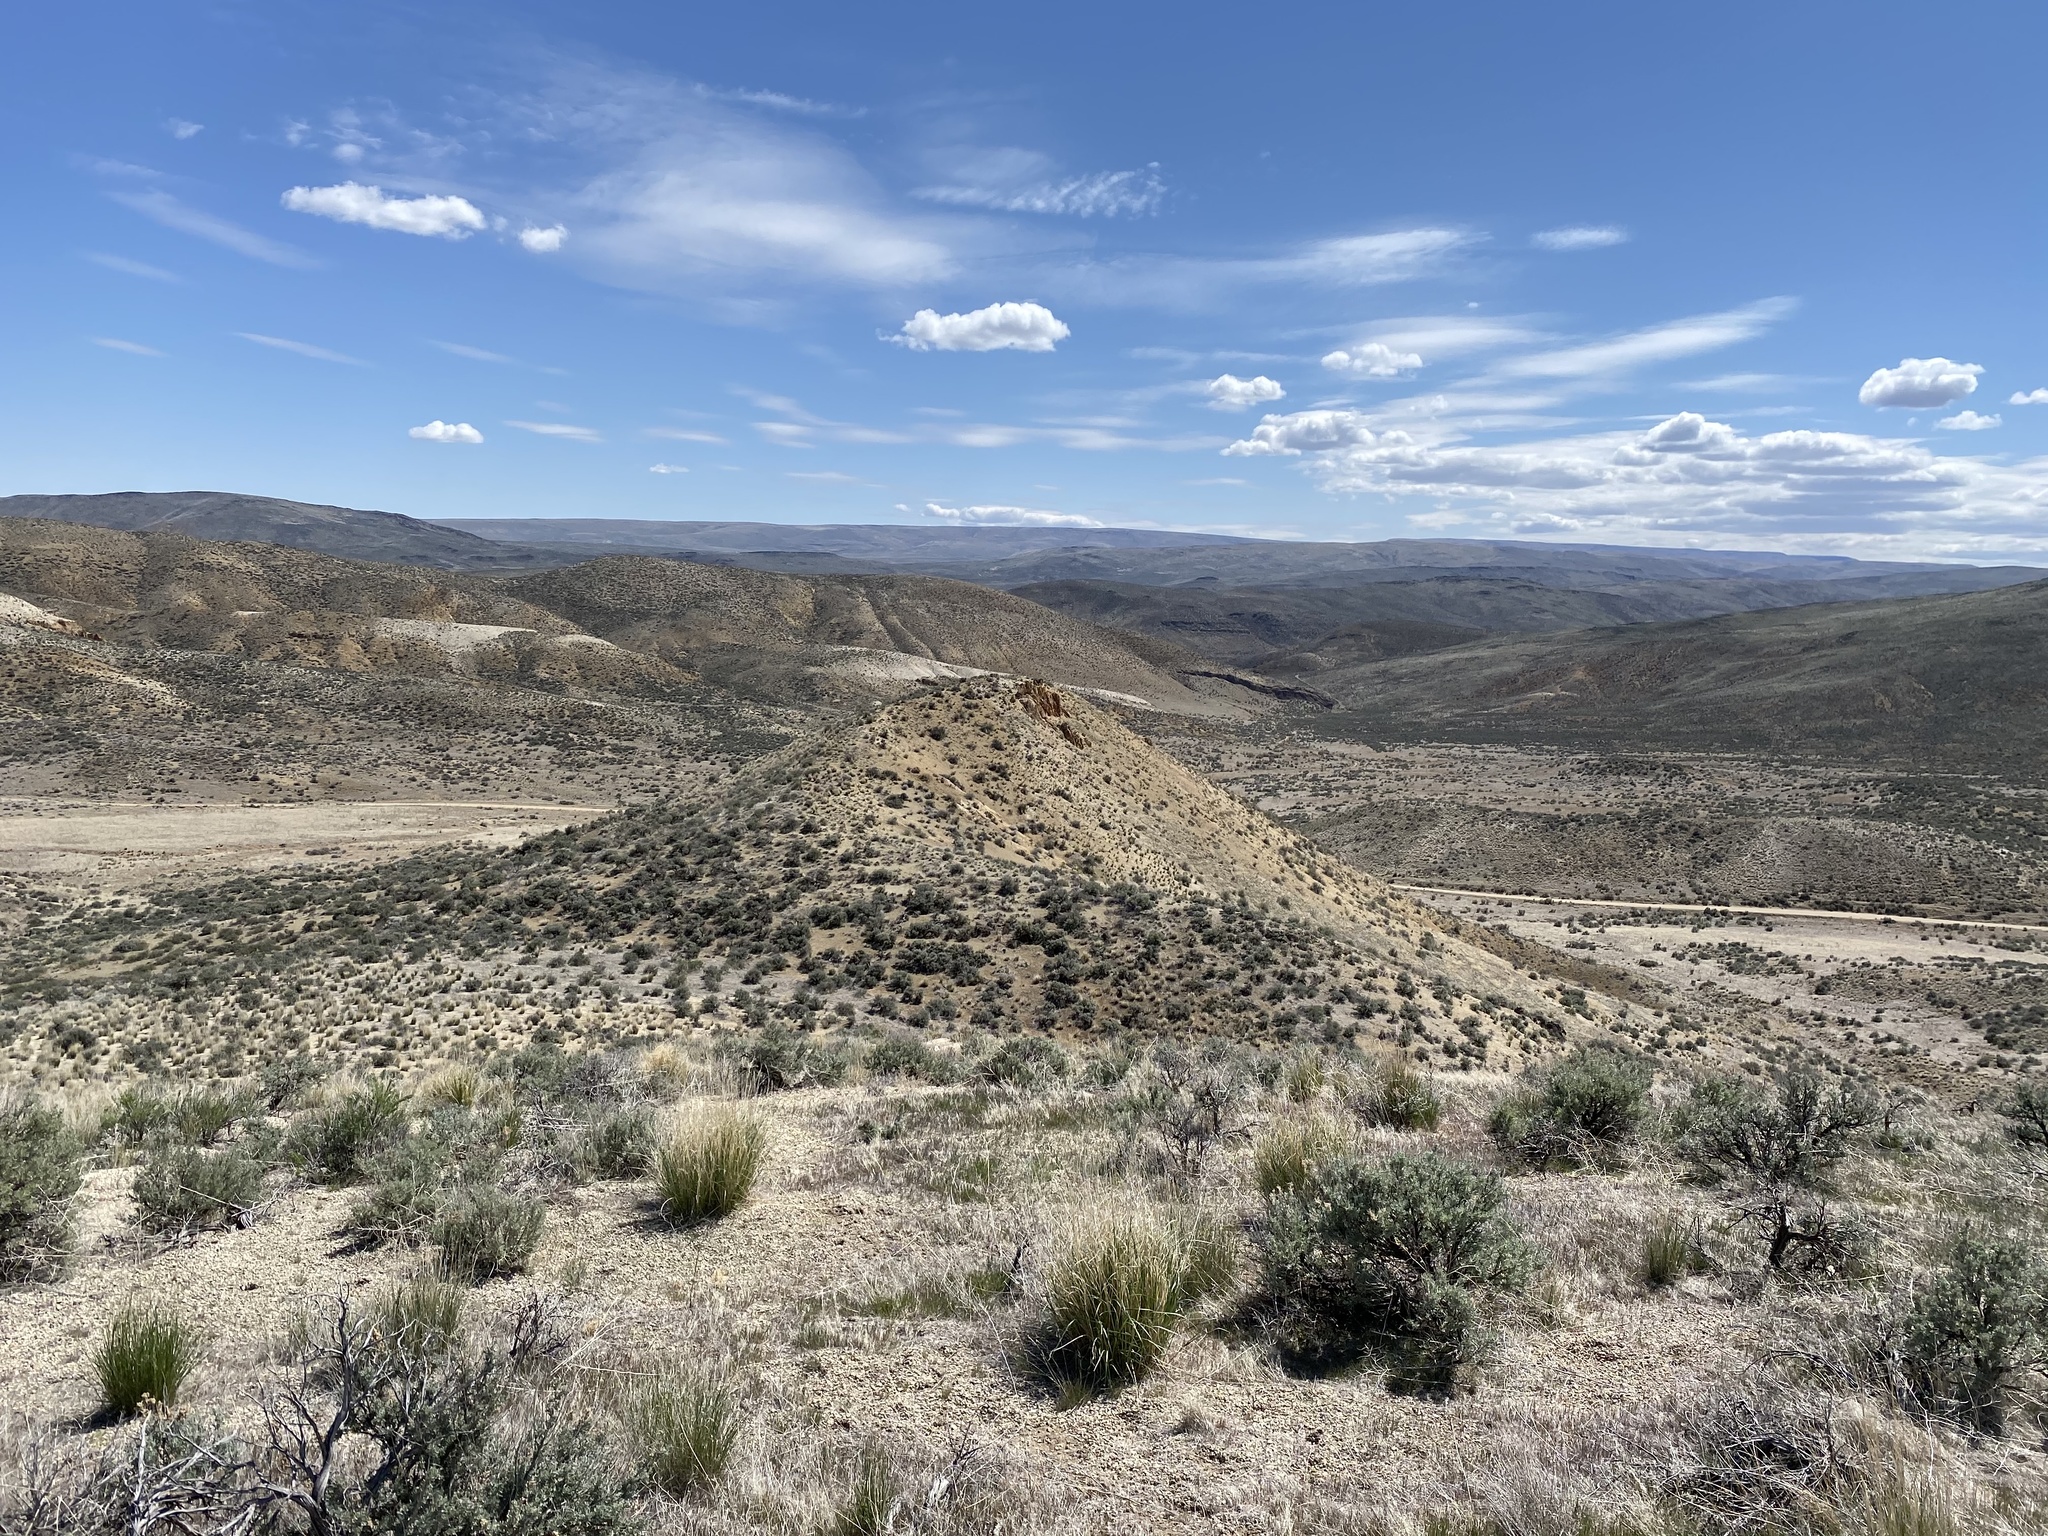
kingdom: Plantae
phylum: Tracheophyta
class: Magnoliopsida
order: Boraginales
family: Boraginaceae
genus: Amsinckia
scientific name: Amsinckia carinata
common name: Malheur fiddleneck
